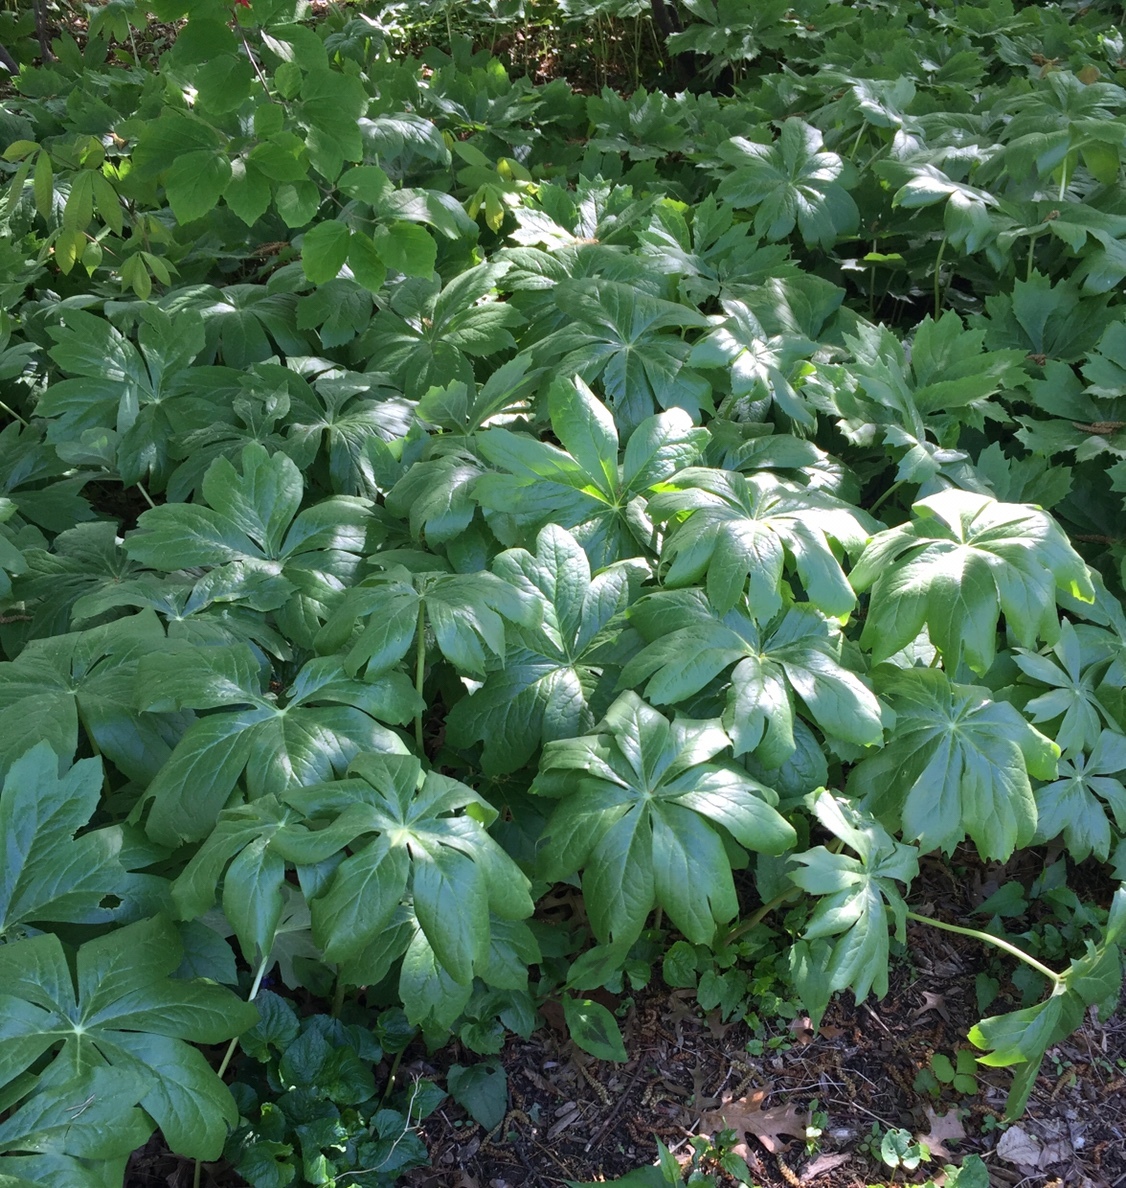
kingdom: Plantae
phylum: Tracheophyta
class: Magnoliopsida
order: Ranunculales
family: Berberidaceae
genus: Podophyllum
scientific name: Podophyllum peltatum
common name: Wild mandrake
